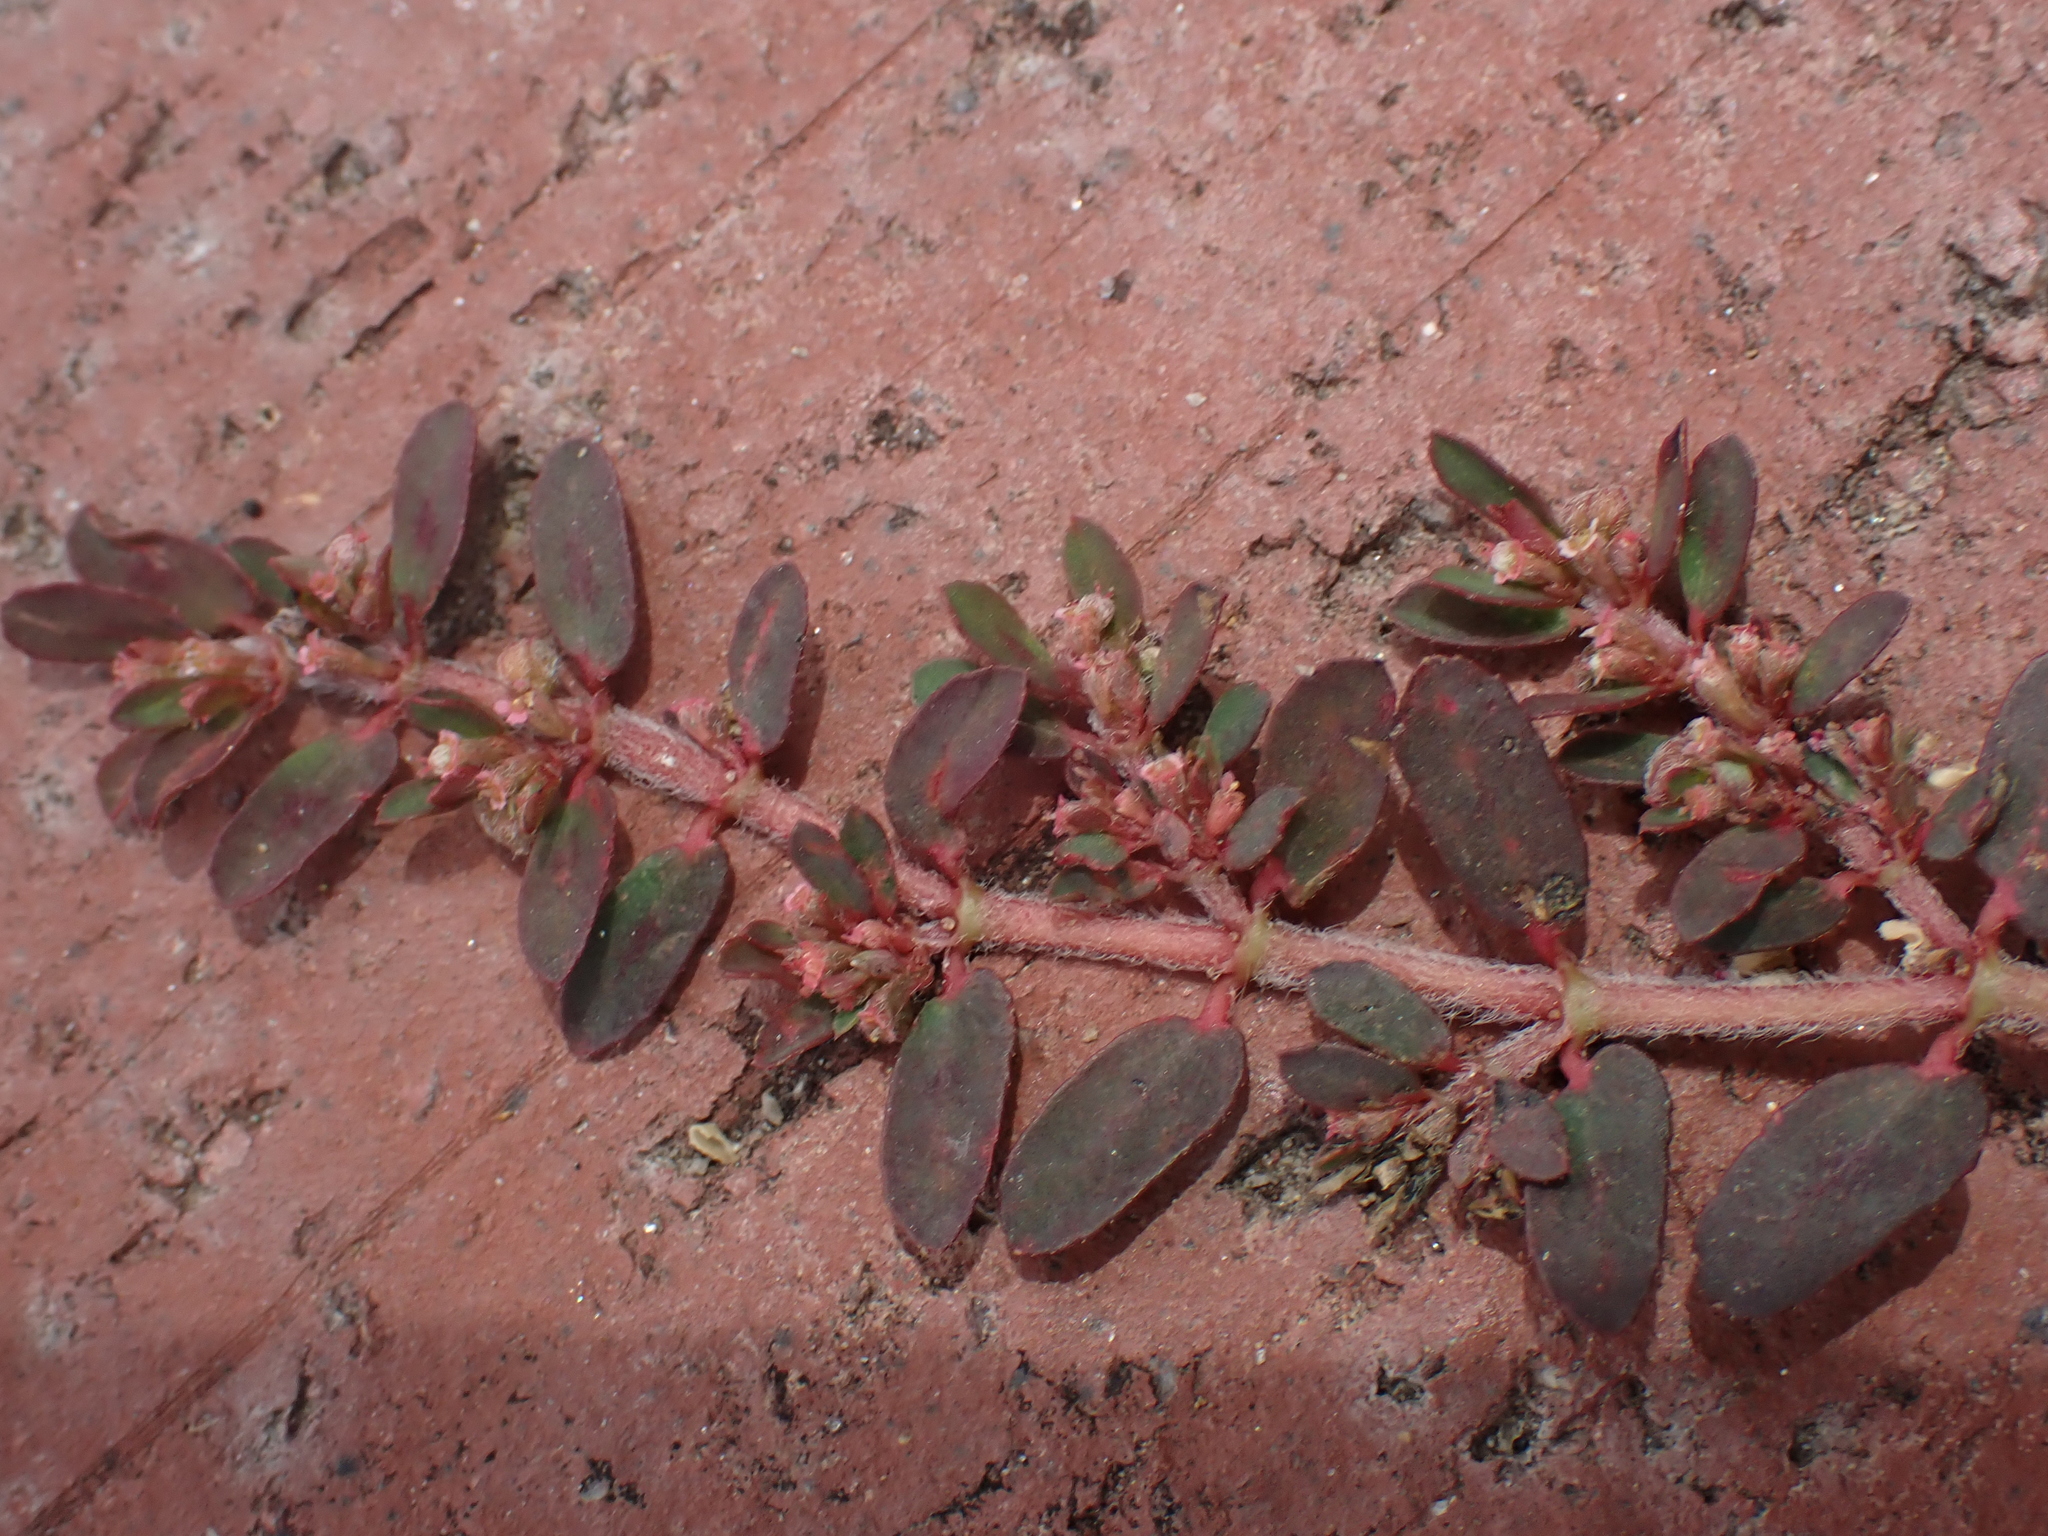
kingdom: Plantae
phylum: Tracheophyta
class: Magnoliopsida
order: Malpighiales
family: Euphorbiaceae
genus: Euphorbia
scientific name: Euphorbia maculata
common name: Spotted spurge
